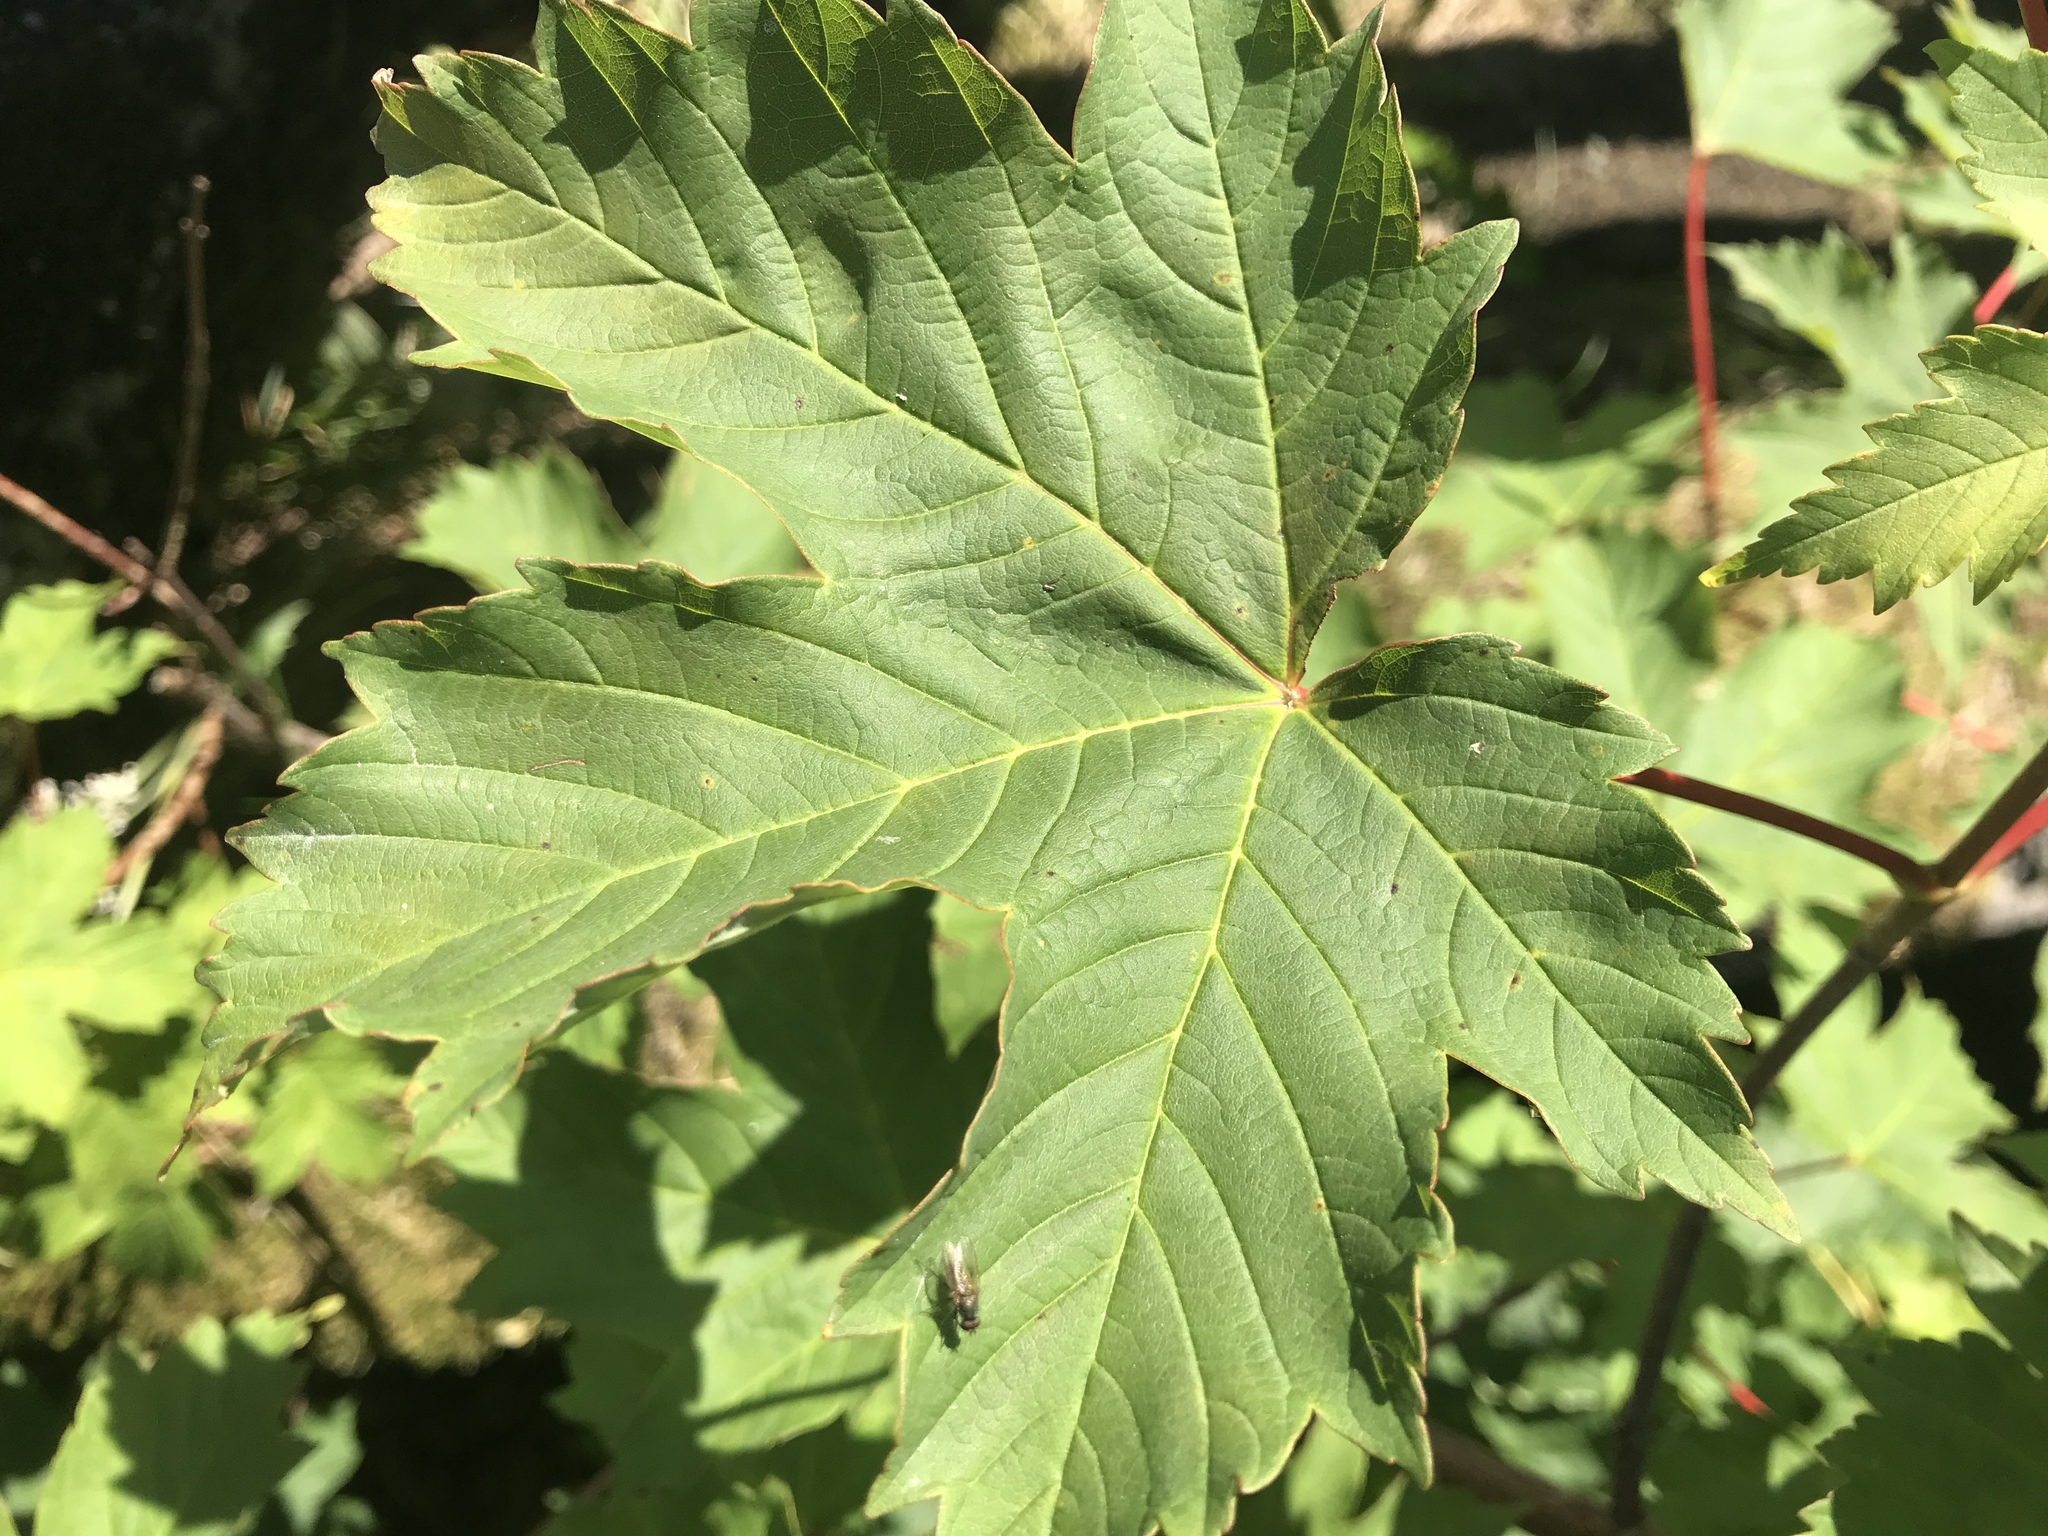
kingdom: Plantae
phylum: Tracheophyta
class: Magnoliopsida
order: Sapindales
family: Sapindaceae
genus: Acer
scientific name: Acer pseudoplatanus
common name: Sycamore
